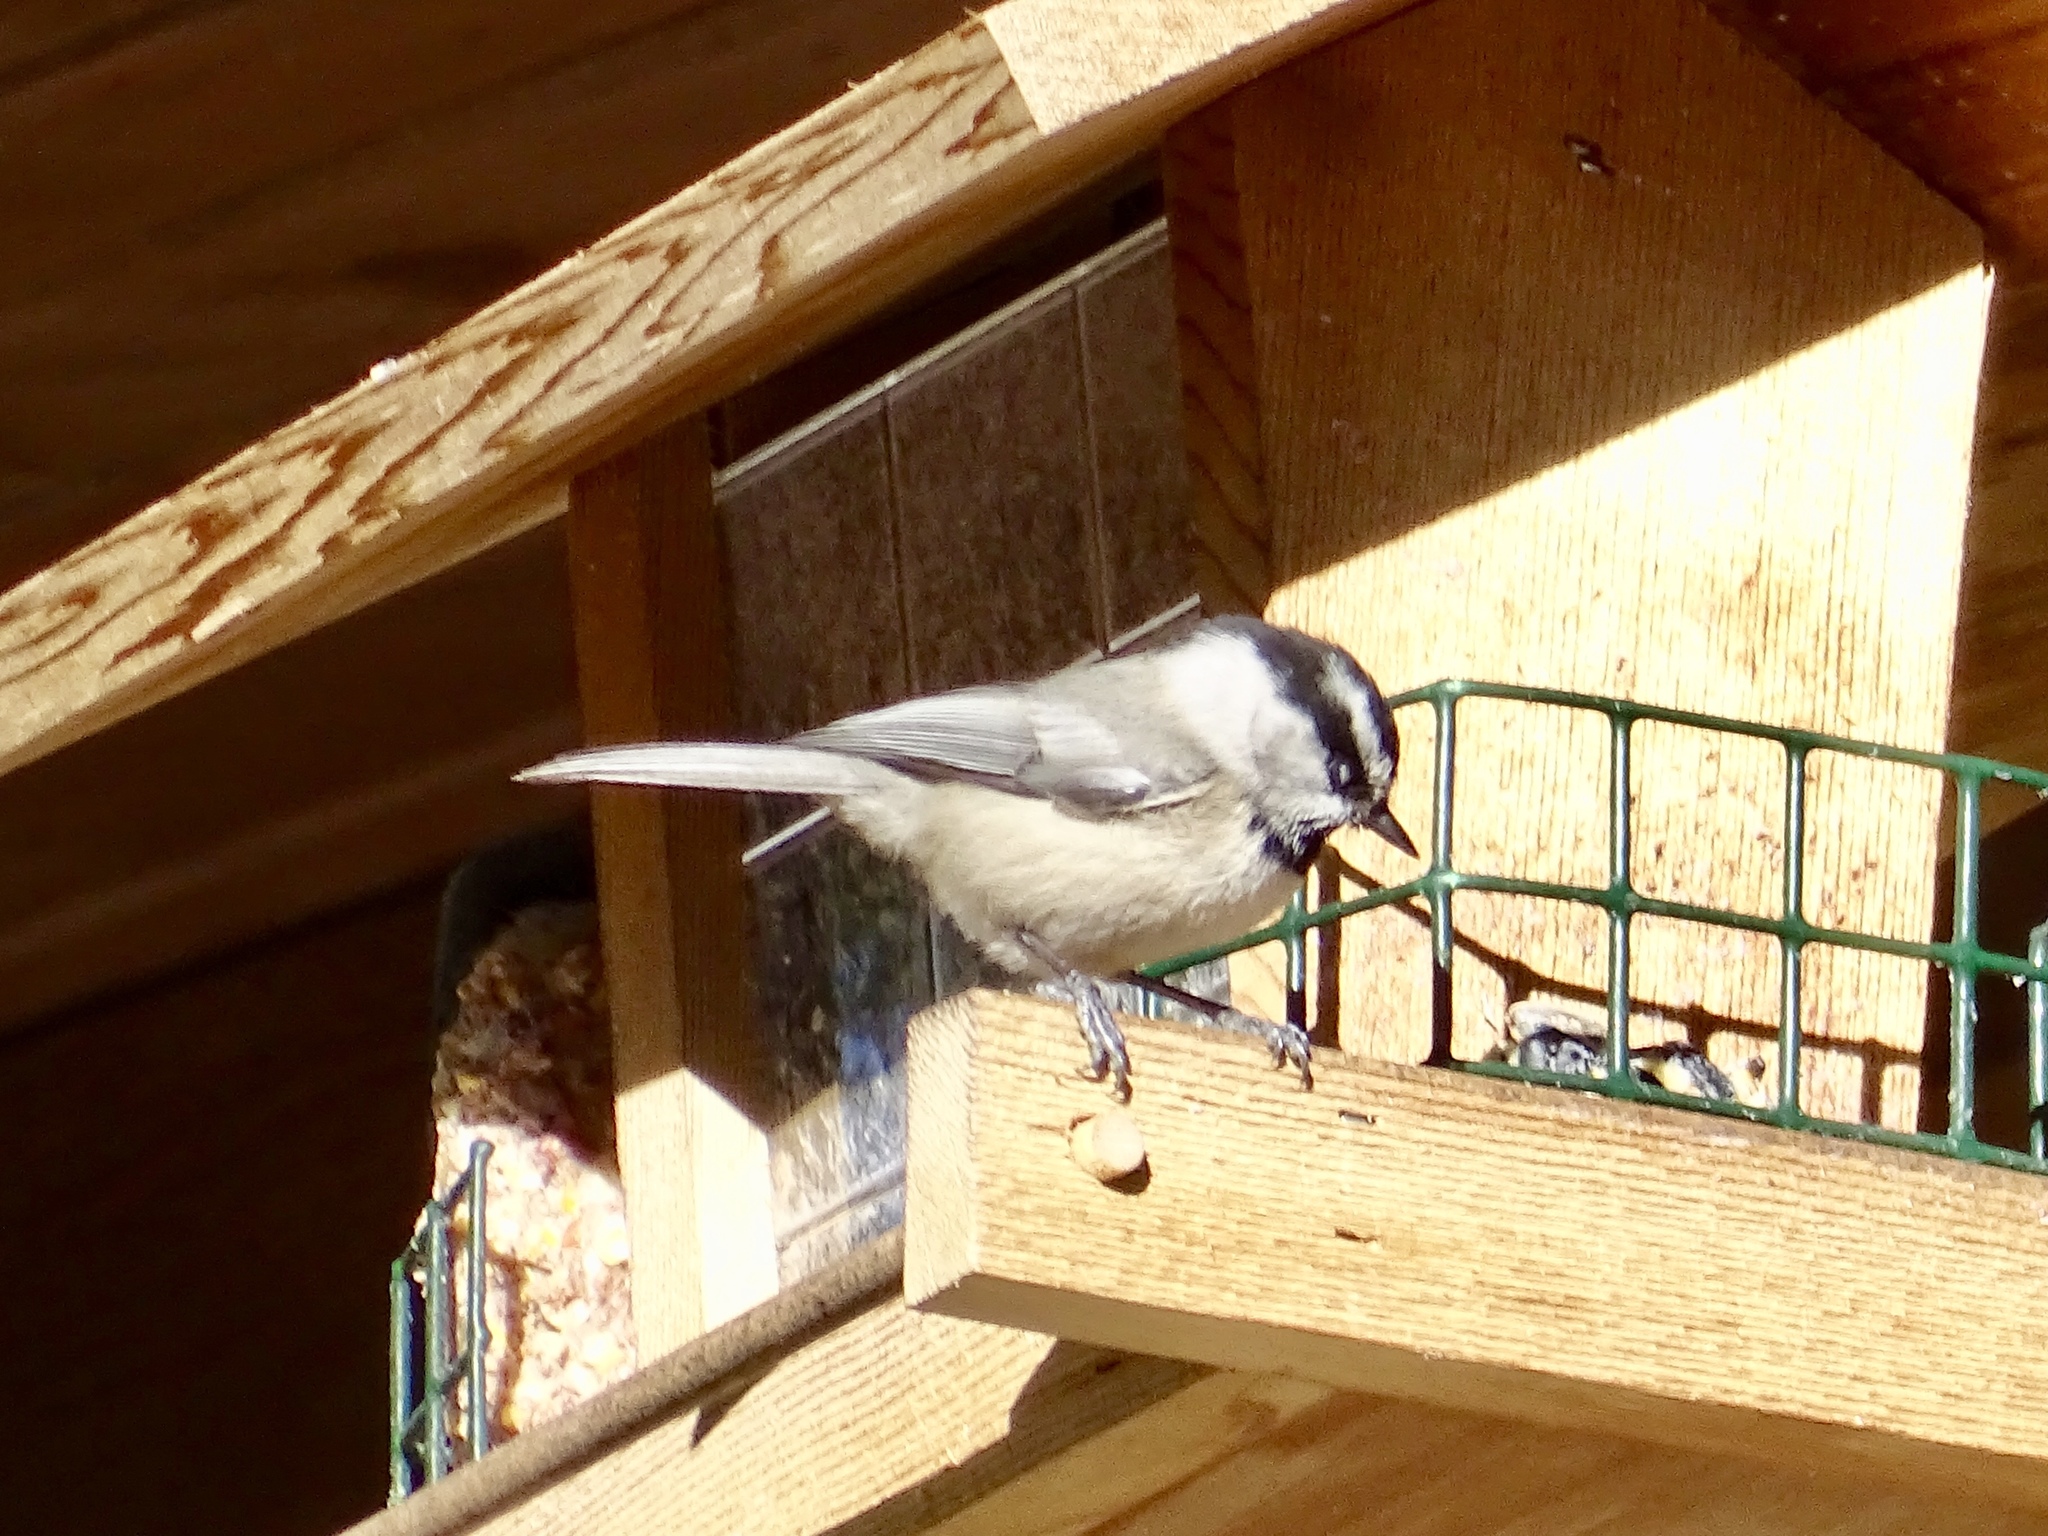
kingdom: Animalia
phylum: Chordata
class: Aves
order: Passeriformes
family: Paridae
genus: Poecile
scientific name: Poecile gambeli
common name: Mountain chickadee
